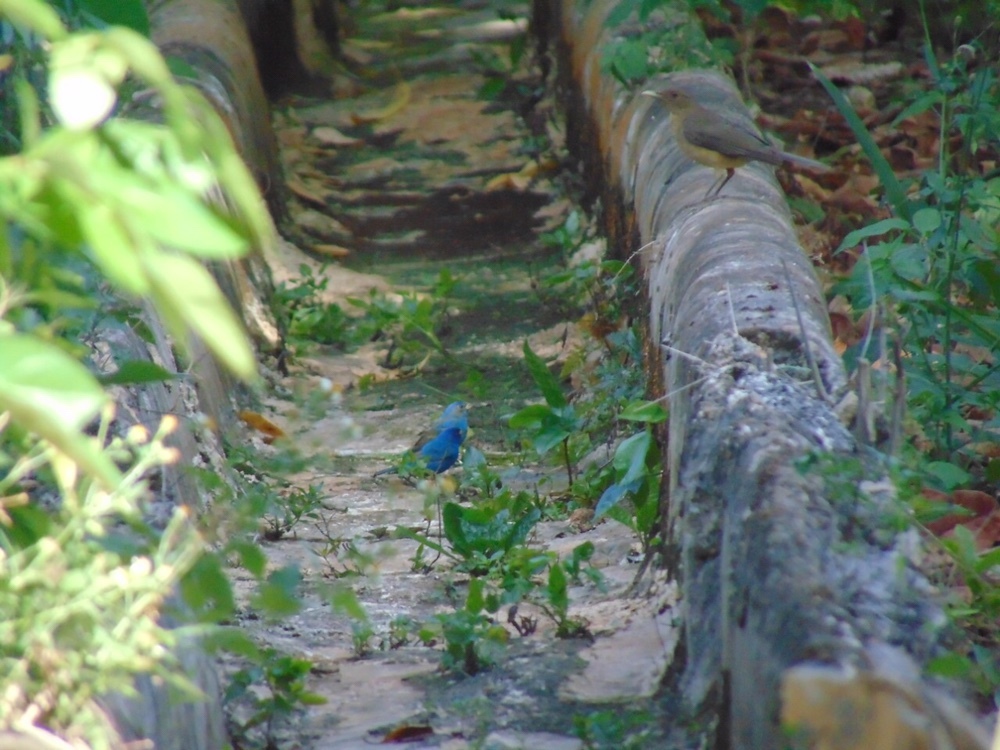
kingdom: Animalia
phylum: Chordata
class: Aves
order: Passeriformes
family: Cardinalidae
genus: Passerina
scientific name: Passerina cyanea
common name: Indigo bunting
